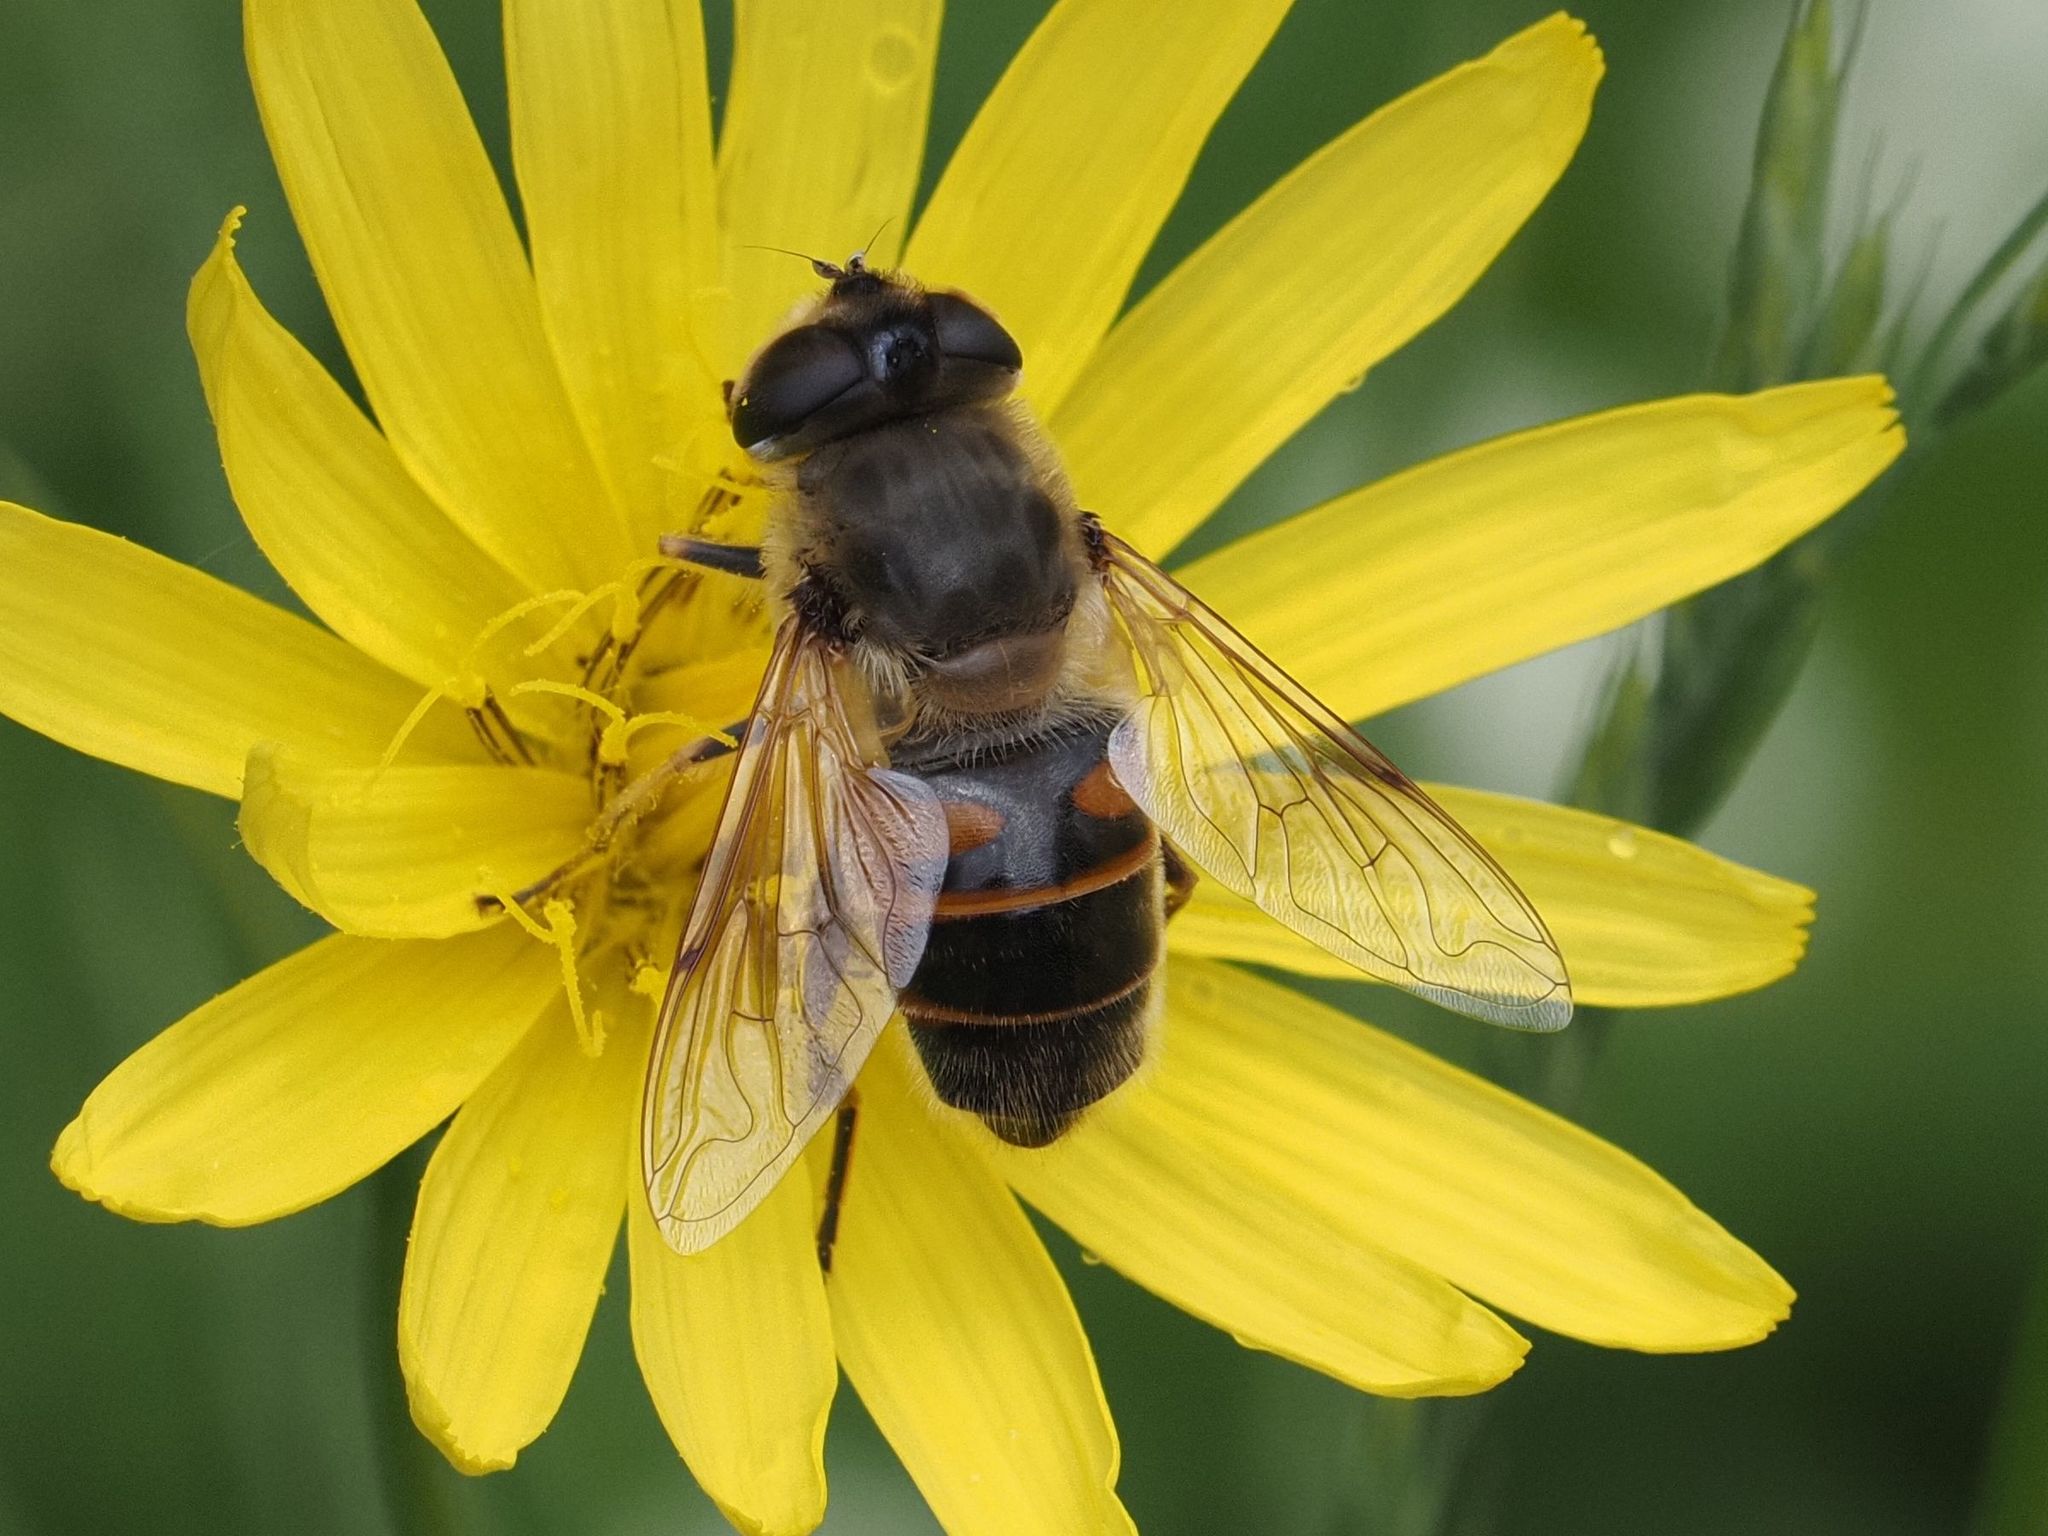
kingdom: Animalia
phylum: Arthropoda
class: Insecta
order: Diptera
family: Syrphidae
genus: Eristalis
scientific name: Eristalis tenax
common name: Drone fly
